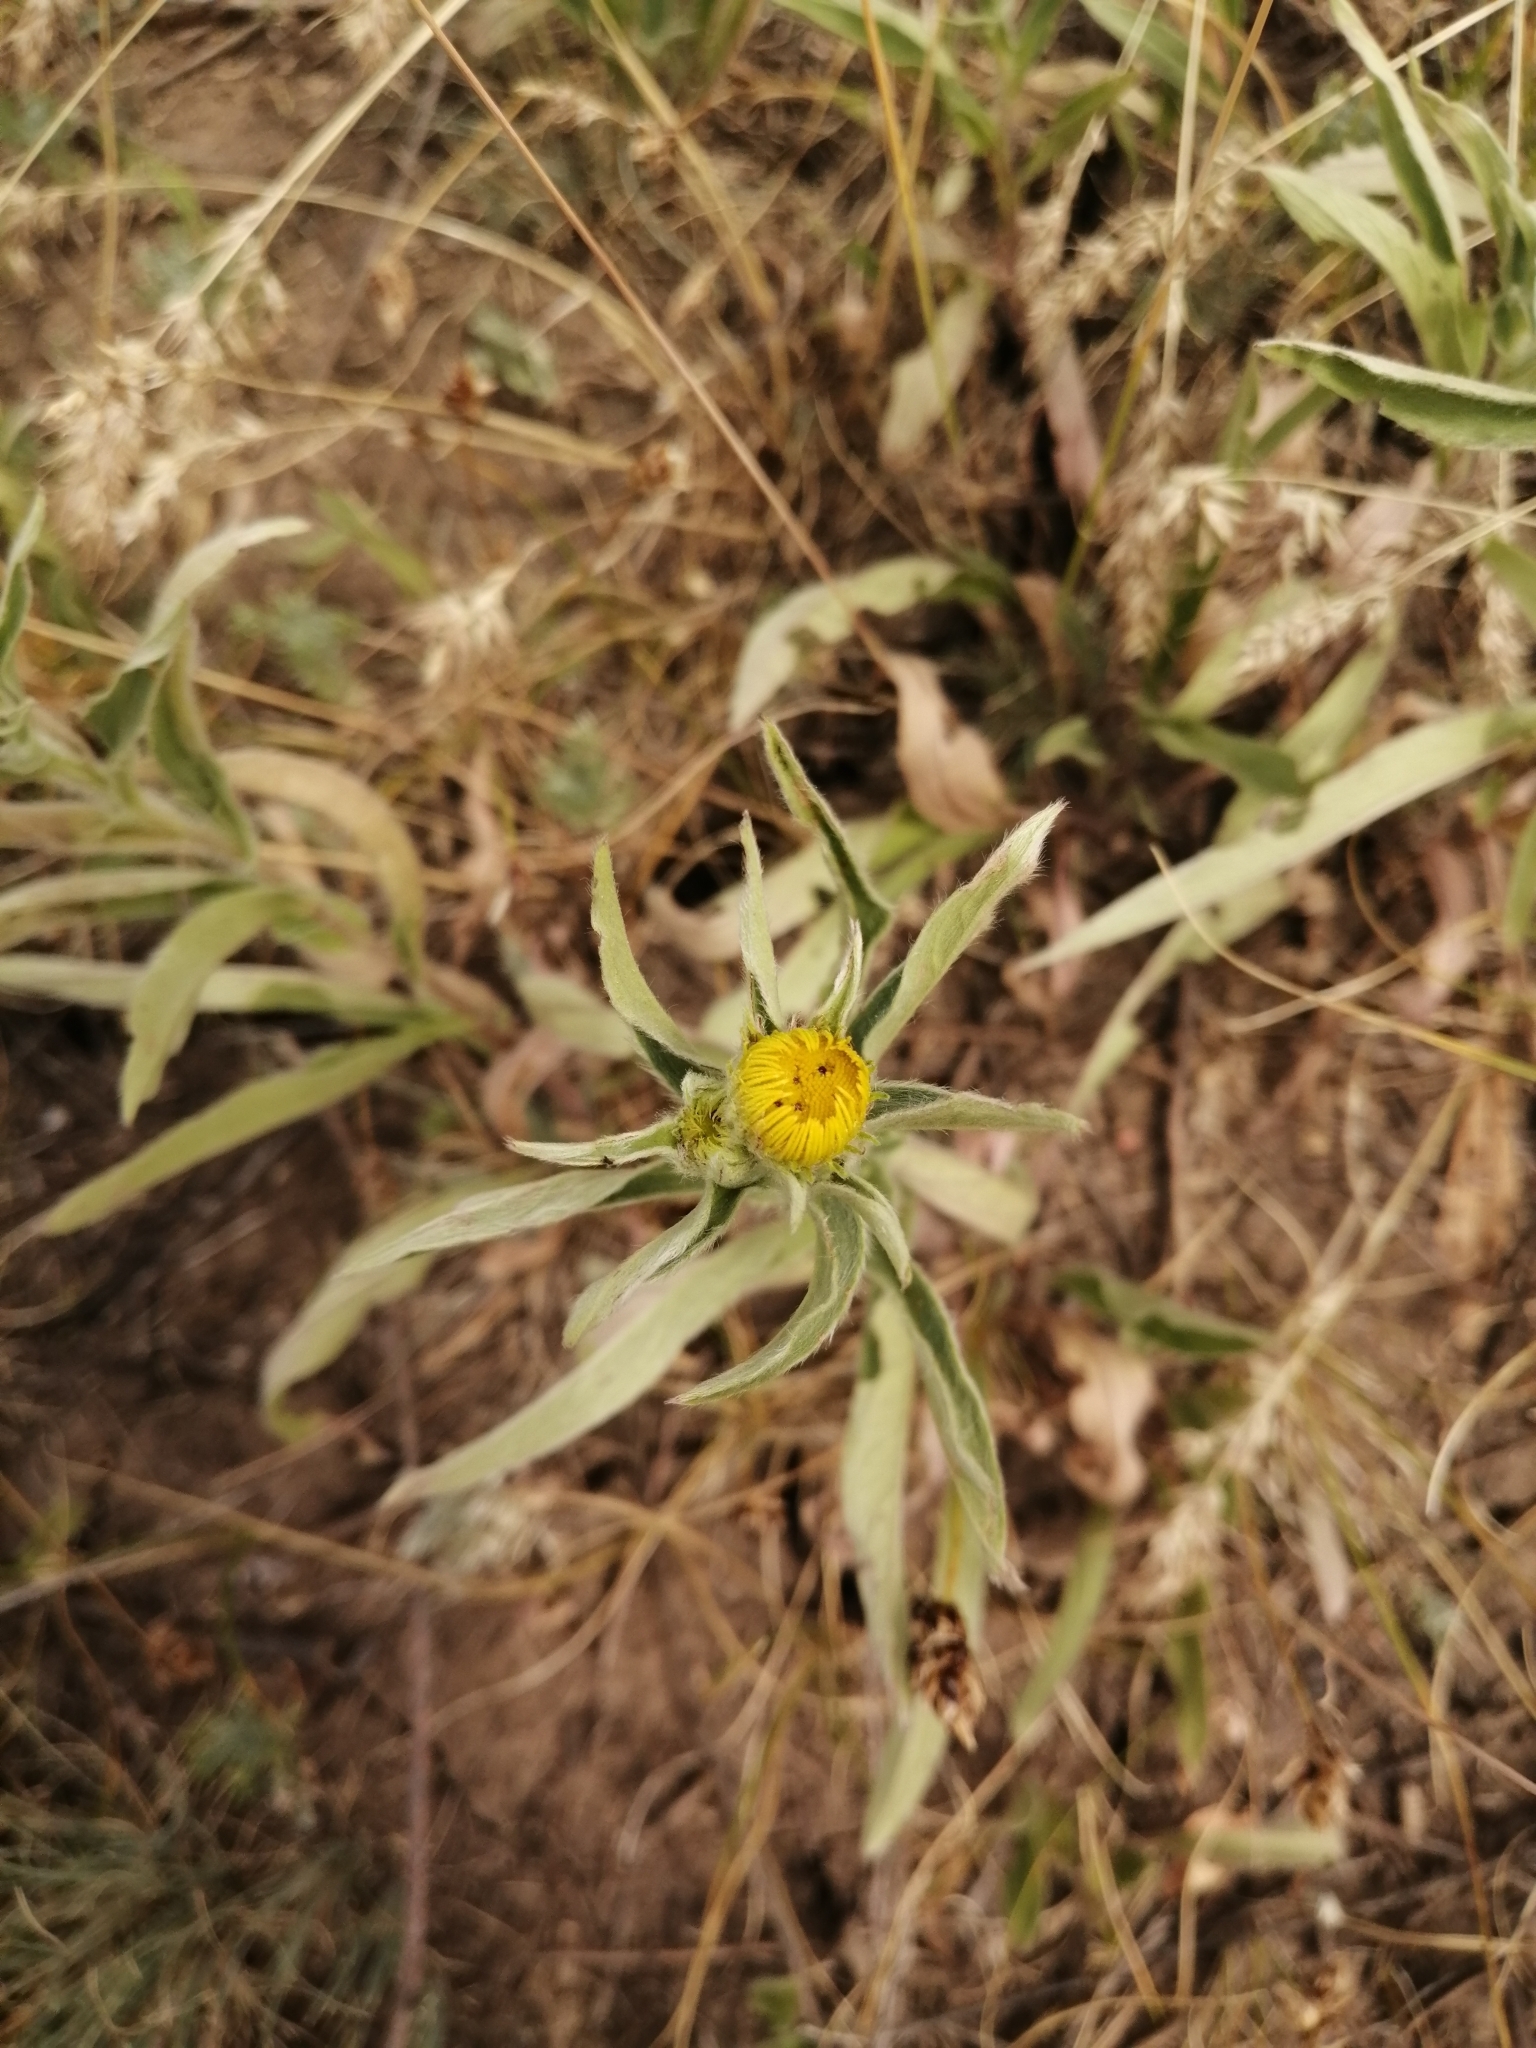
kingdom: Plantae
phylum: Tracheophyta
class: Magnoliopsida
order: Asterales
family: Asteraceae
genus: Pentanema
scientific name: Pentanema britannicum
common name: British elecampane
